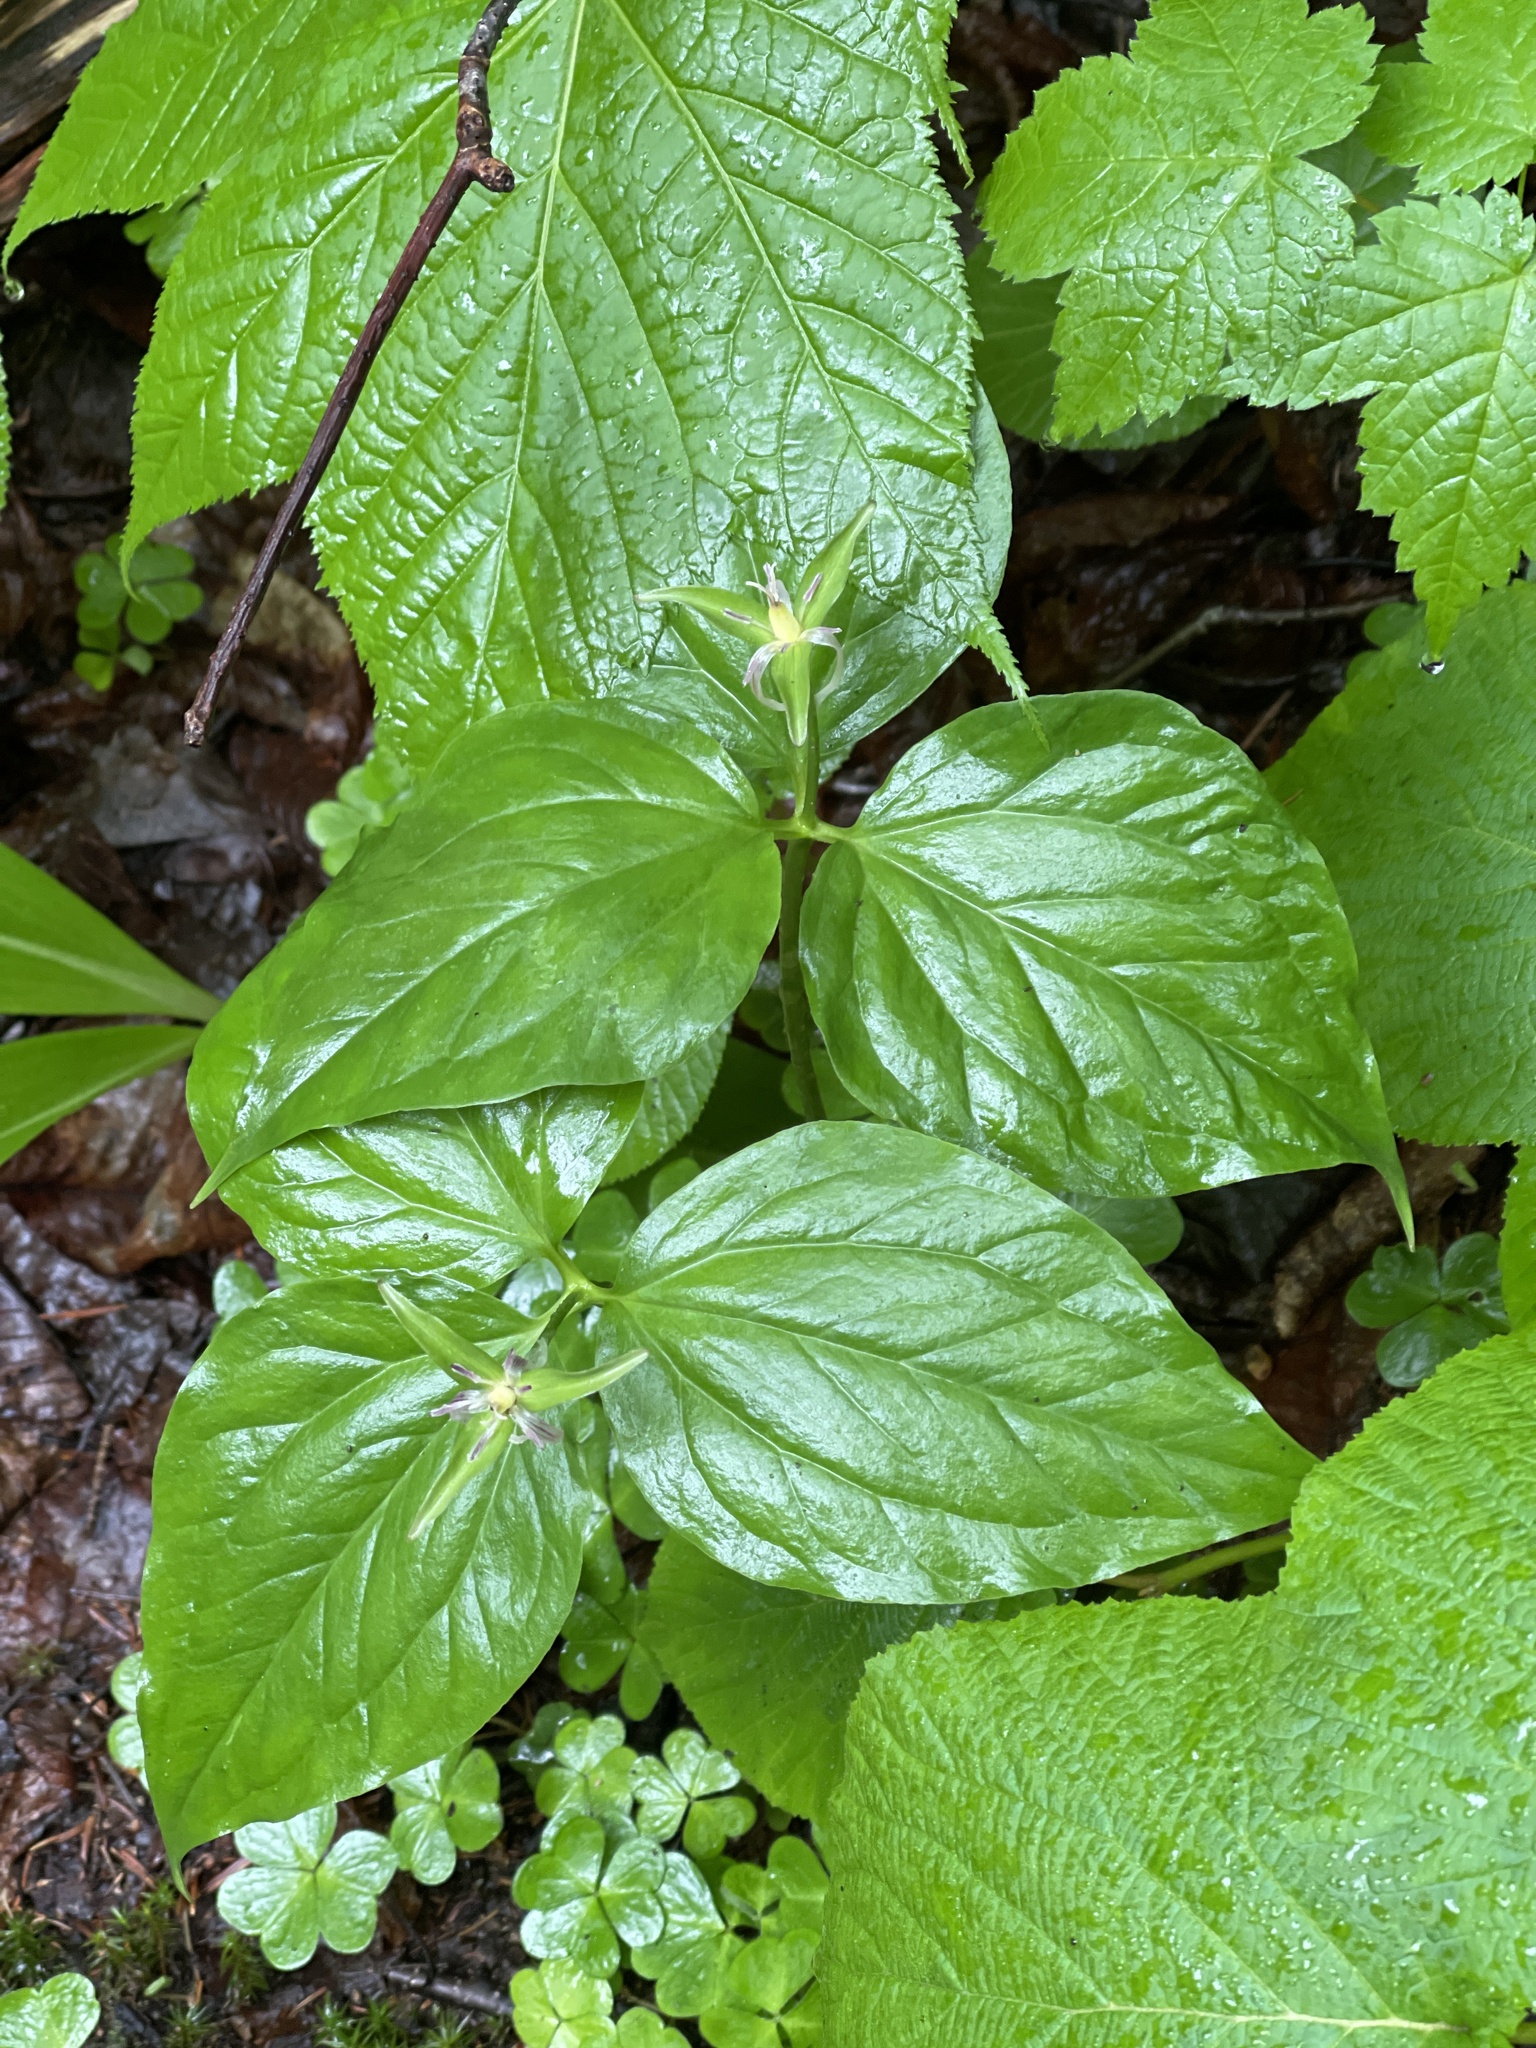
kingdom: Plantae
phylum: Tracheophyta
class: Liliopsida
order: Liliales
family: Melanthiaceae
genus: Trillium
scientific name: Trillium undulatum
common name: Paint trillium
